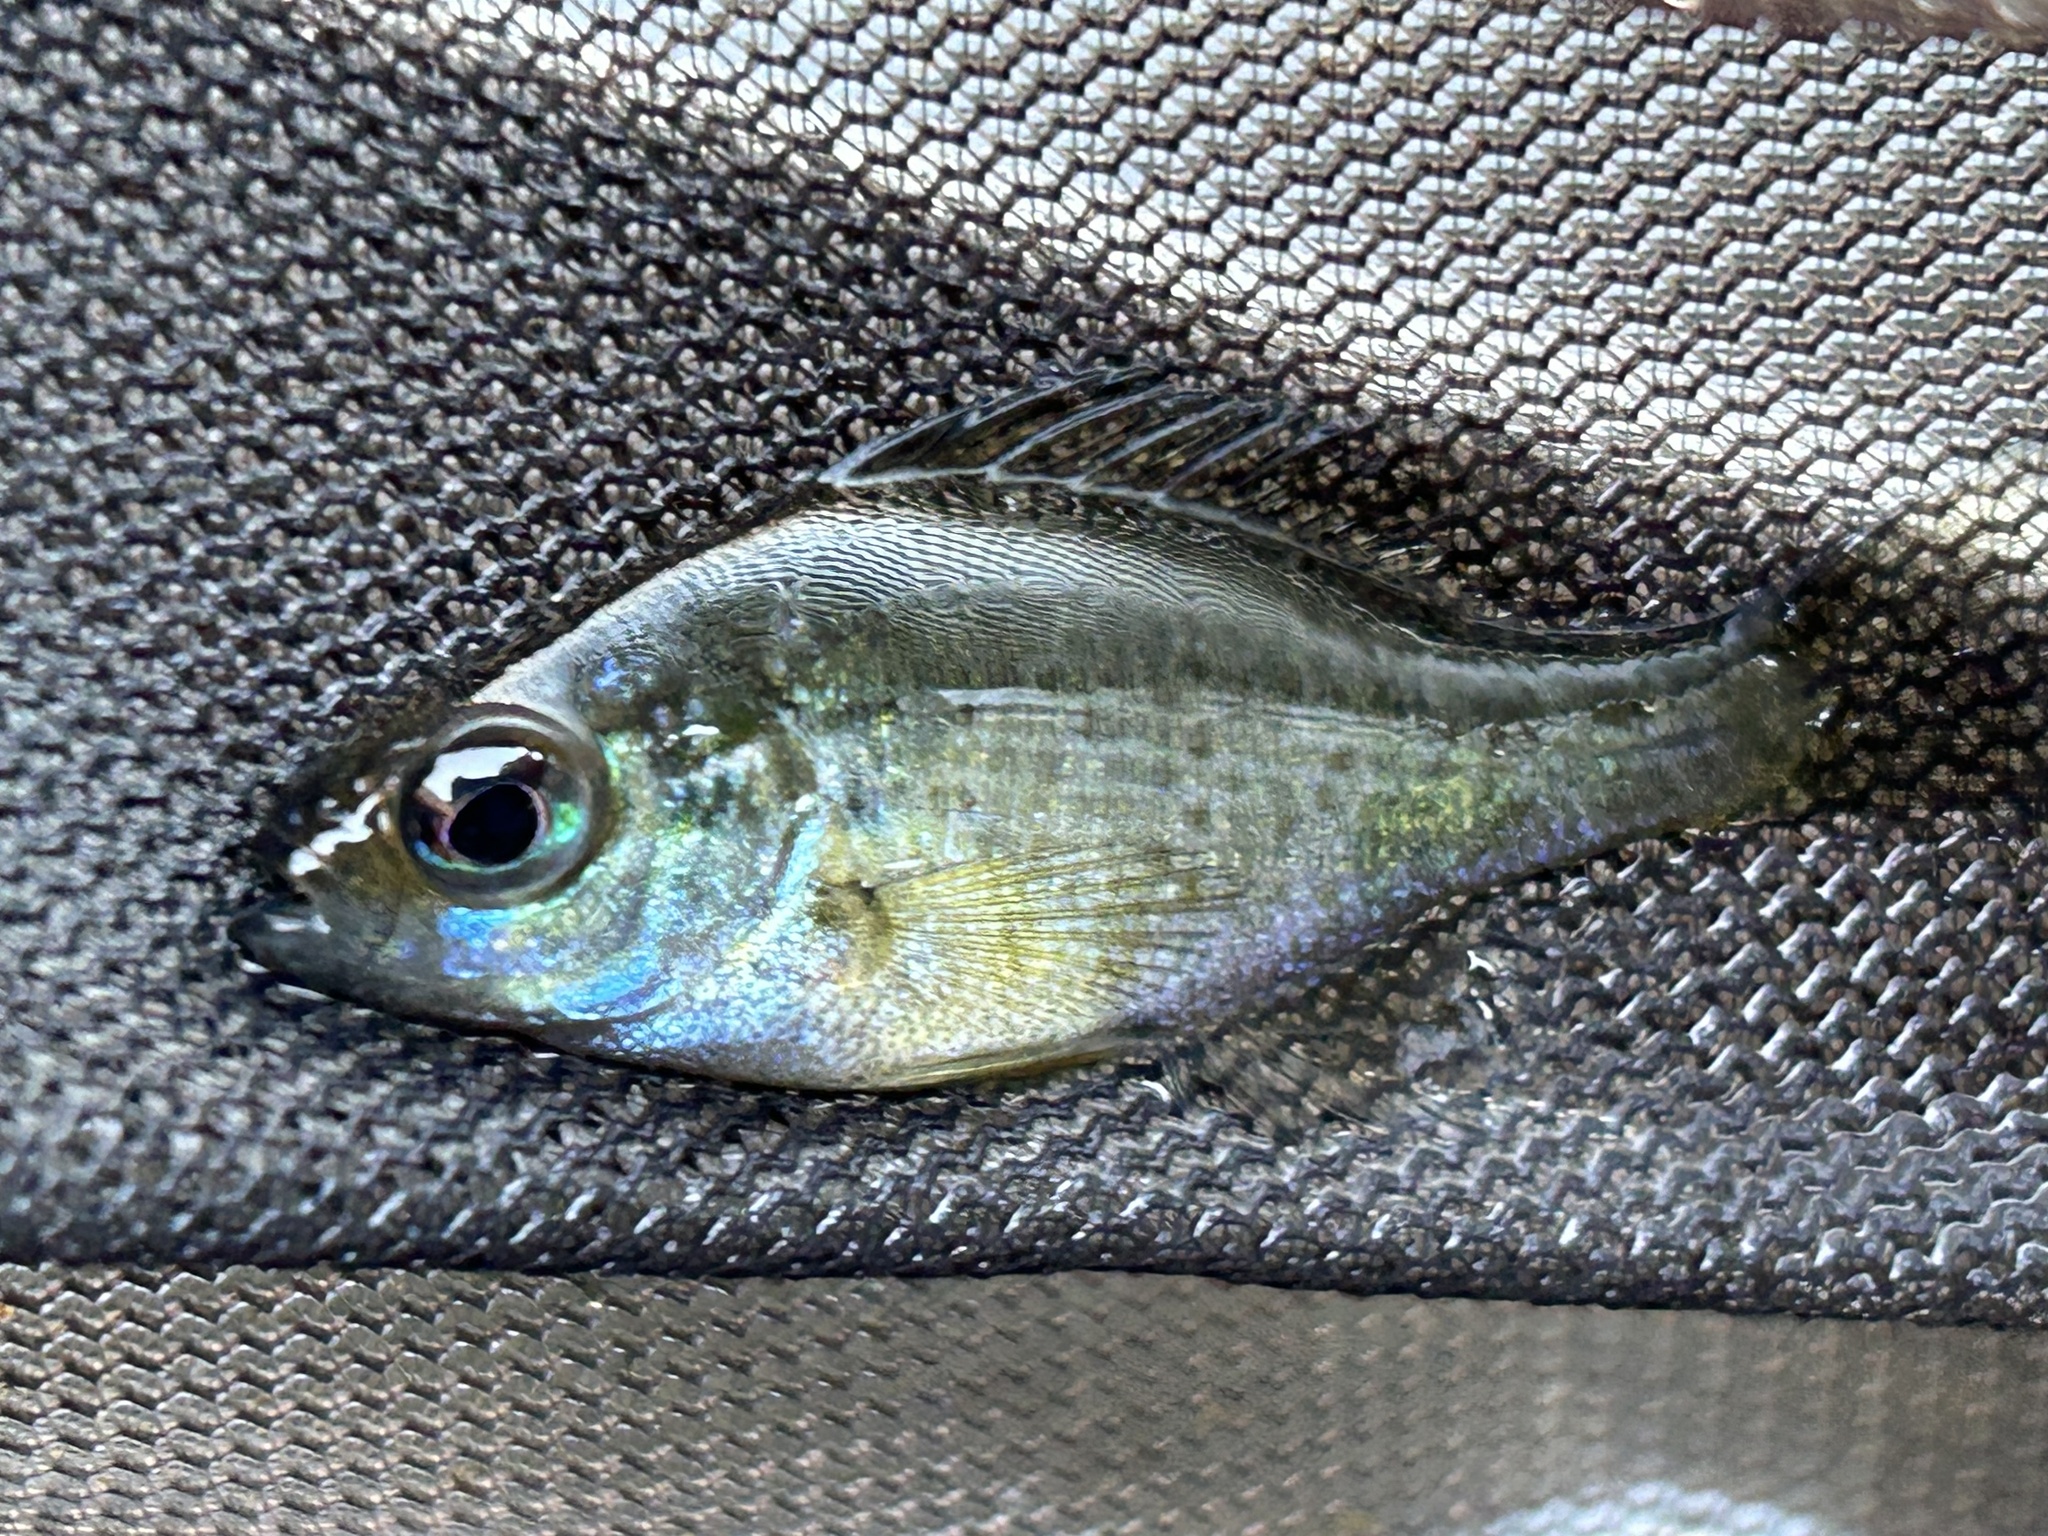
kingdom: Animalia
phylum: Chordata
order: Perciformes
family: Centrarchidae
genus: Lepomis
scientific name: Lepomis macrochirus
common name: Bluegill
